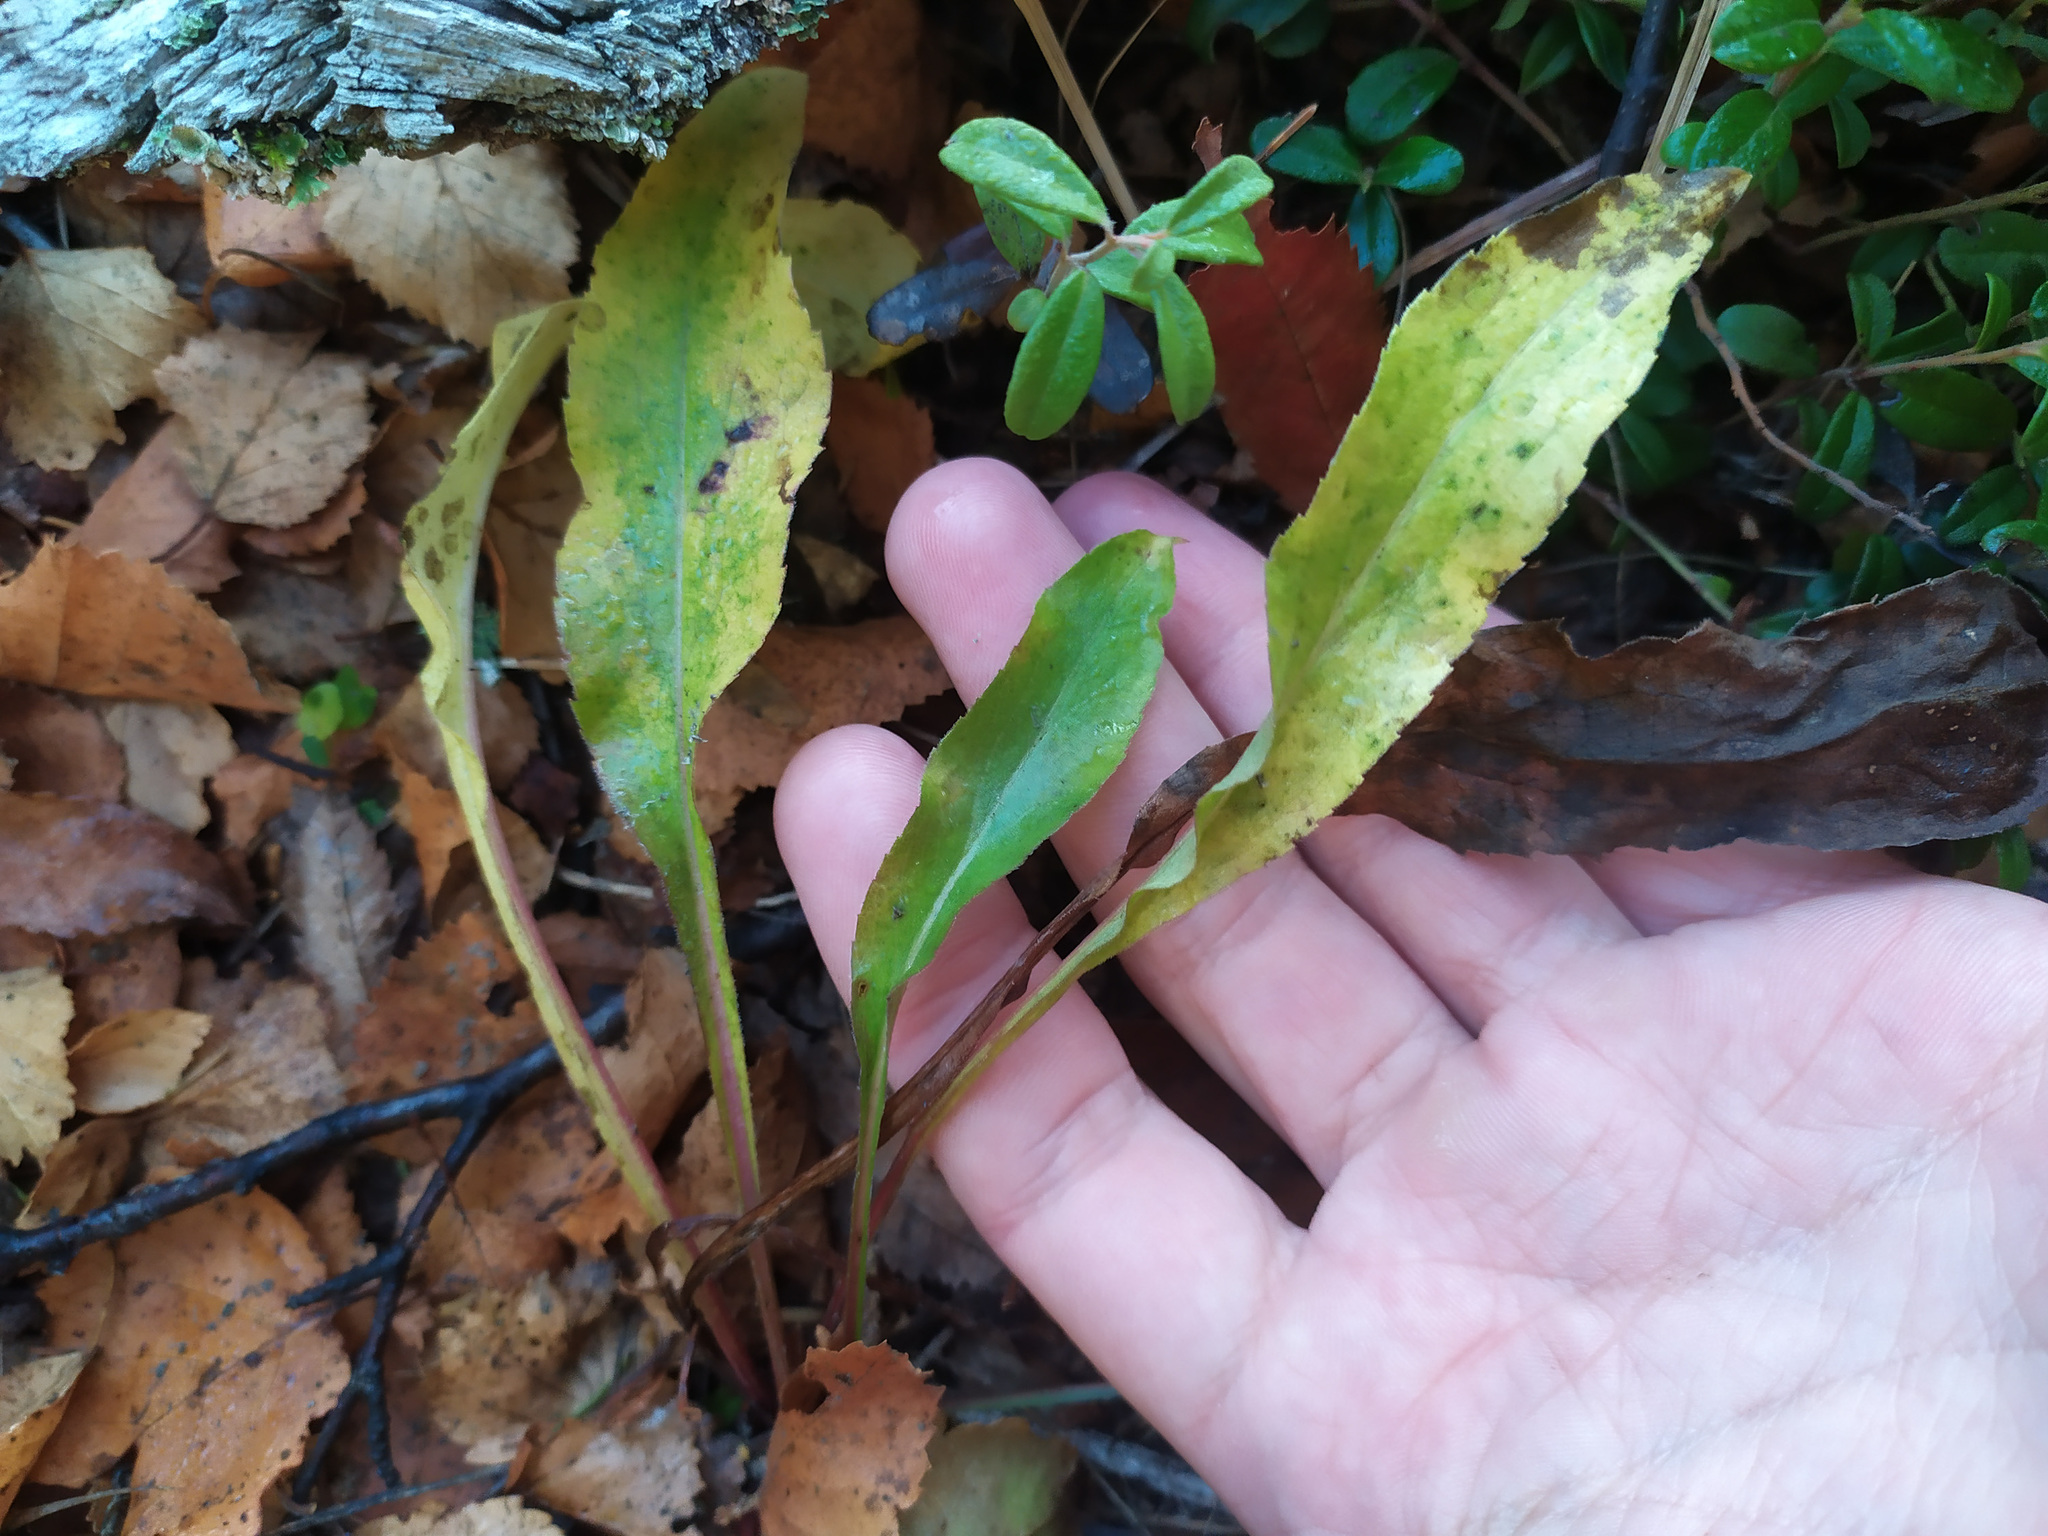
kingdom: Plantae
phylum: Tracheophyta
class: Magnoliopsida
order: Asterales
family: Asteraceae
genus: Solidago
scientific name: Solidago virgaurea
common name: Goldenrod
